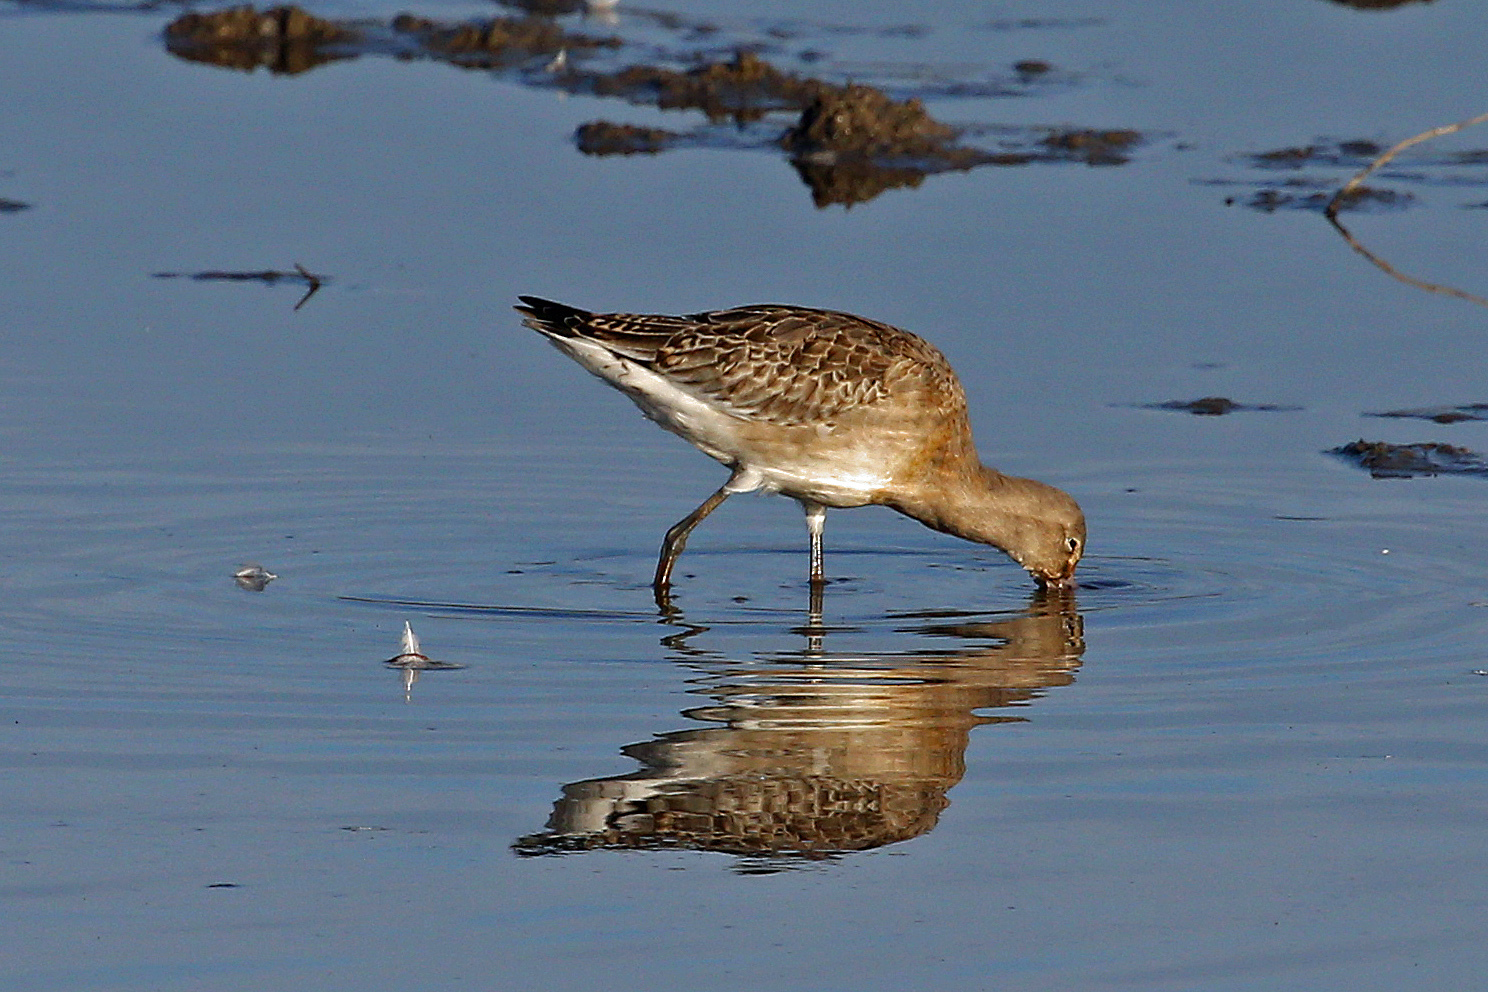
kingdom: Animalia
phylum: Chordata
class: Aves
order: Charadriiformes
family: Scolopacidae
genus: Limosa
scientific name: Limosa limosa
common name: Black-tailed godwit
